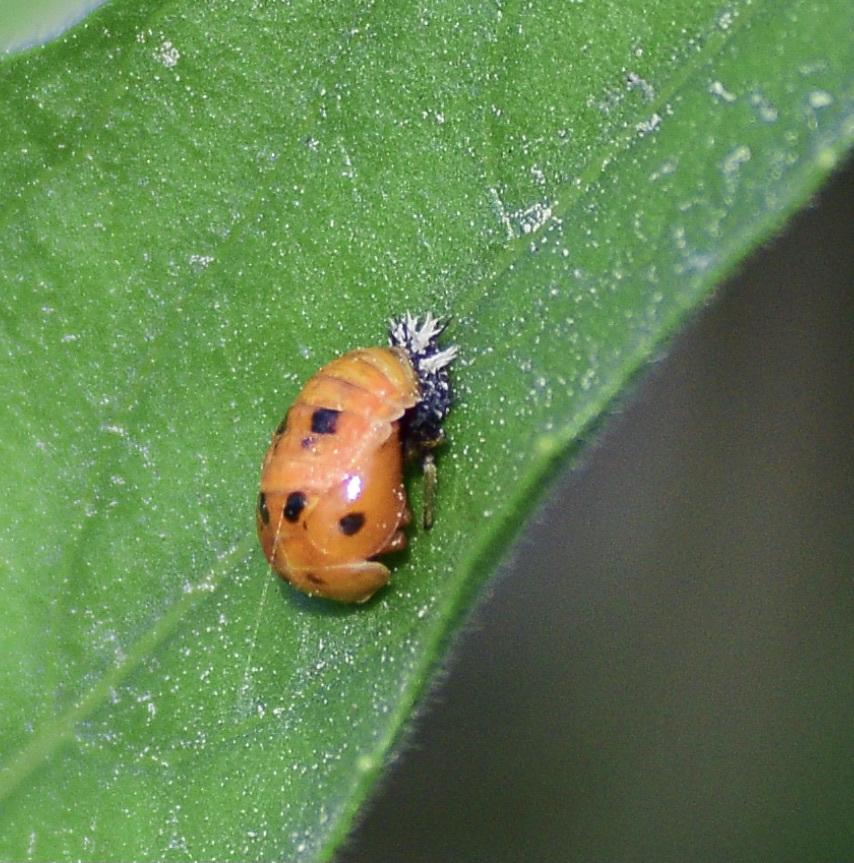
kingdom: Animalia
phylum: Arthropoda
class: Insecta
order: Coleoptera
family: Coccinellidae
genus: Harmonia
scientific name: Harmonia axyridis
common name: Harlequin ladybird
